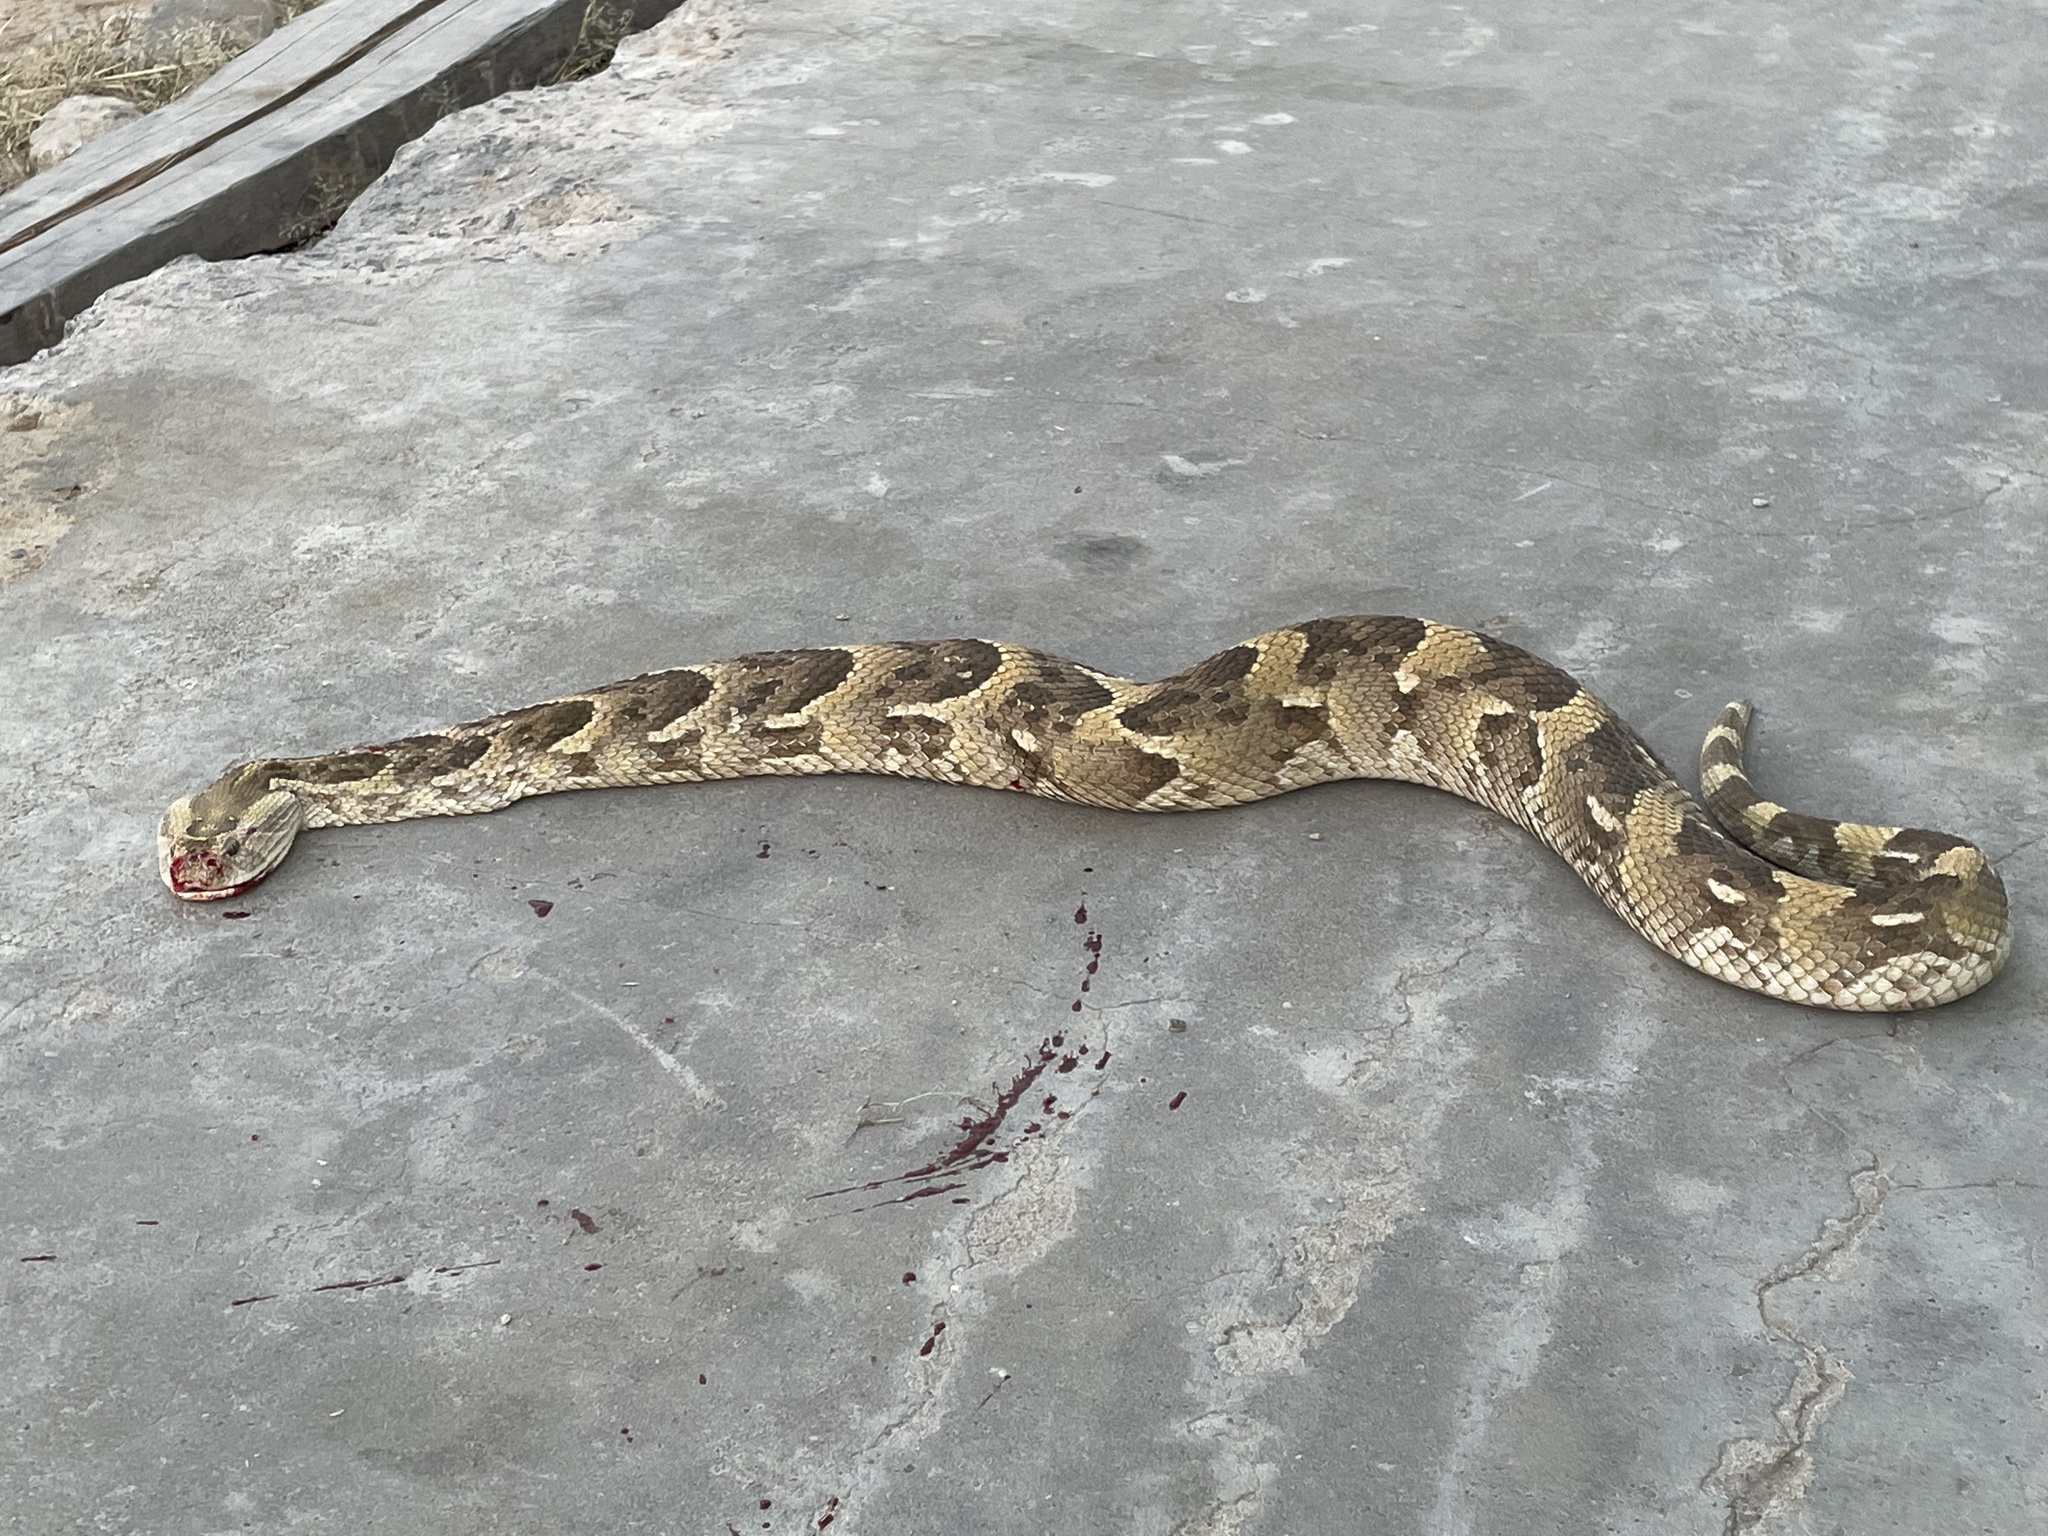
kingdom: Animalia
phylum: Chordata
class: Squamata
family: Viperidae
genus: Bitis
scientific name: Bitis arietans
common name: Puff adder
